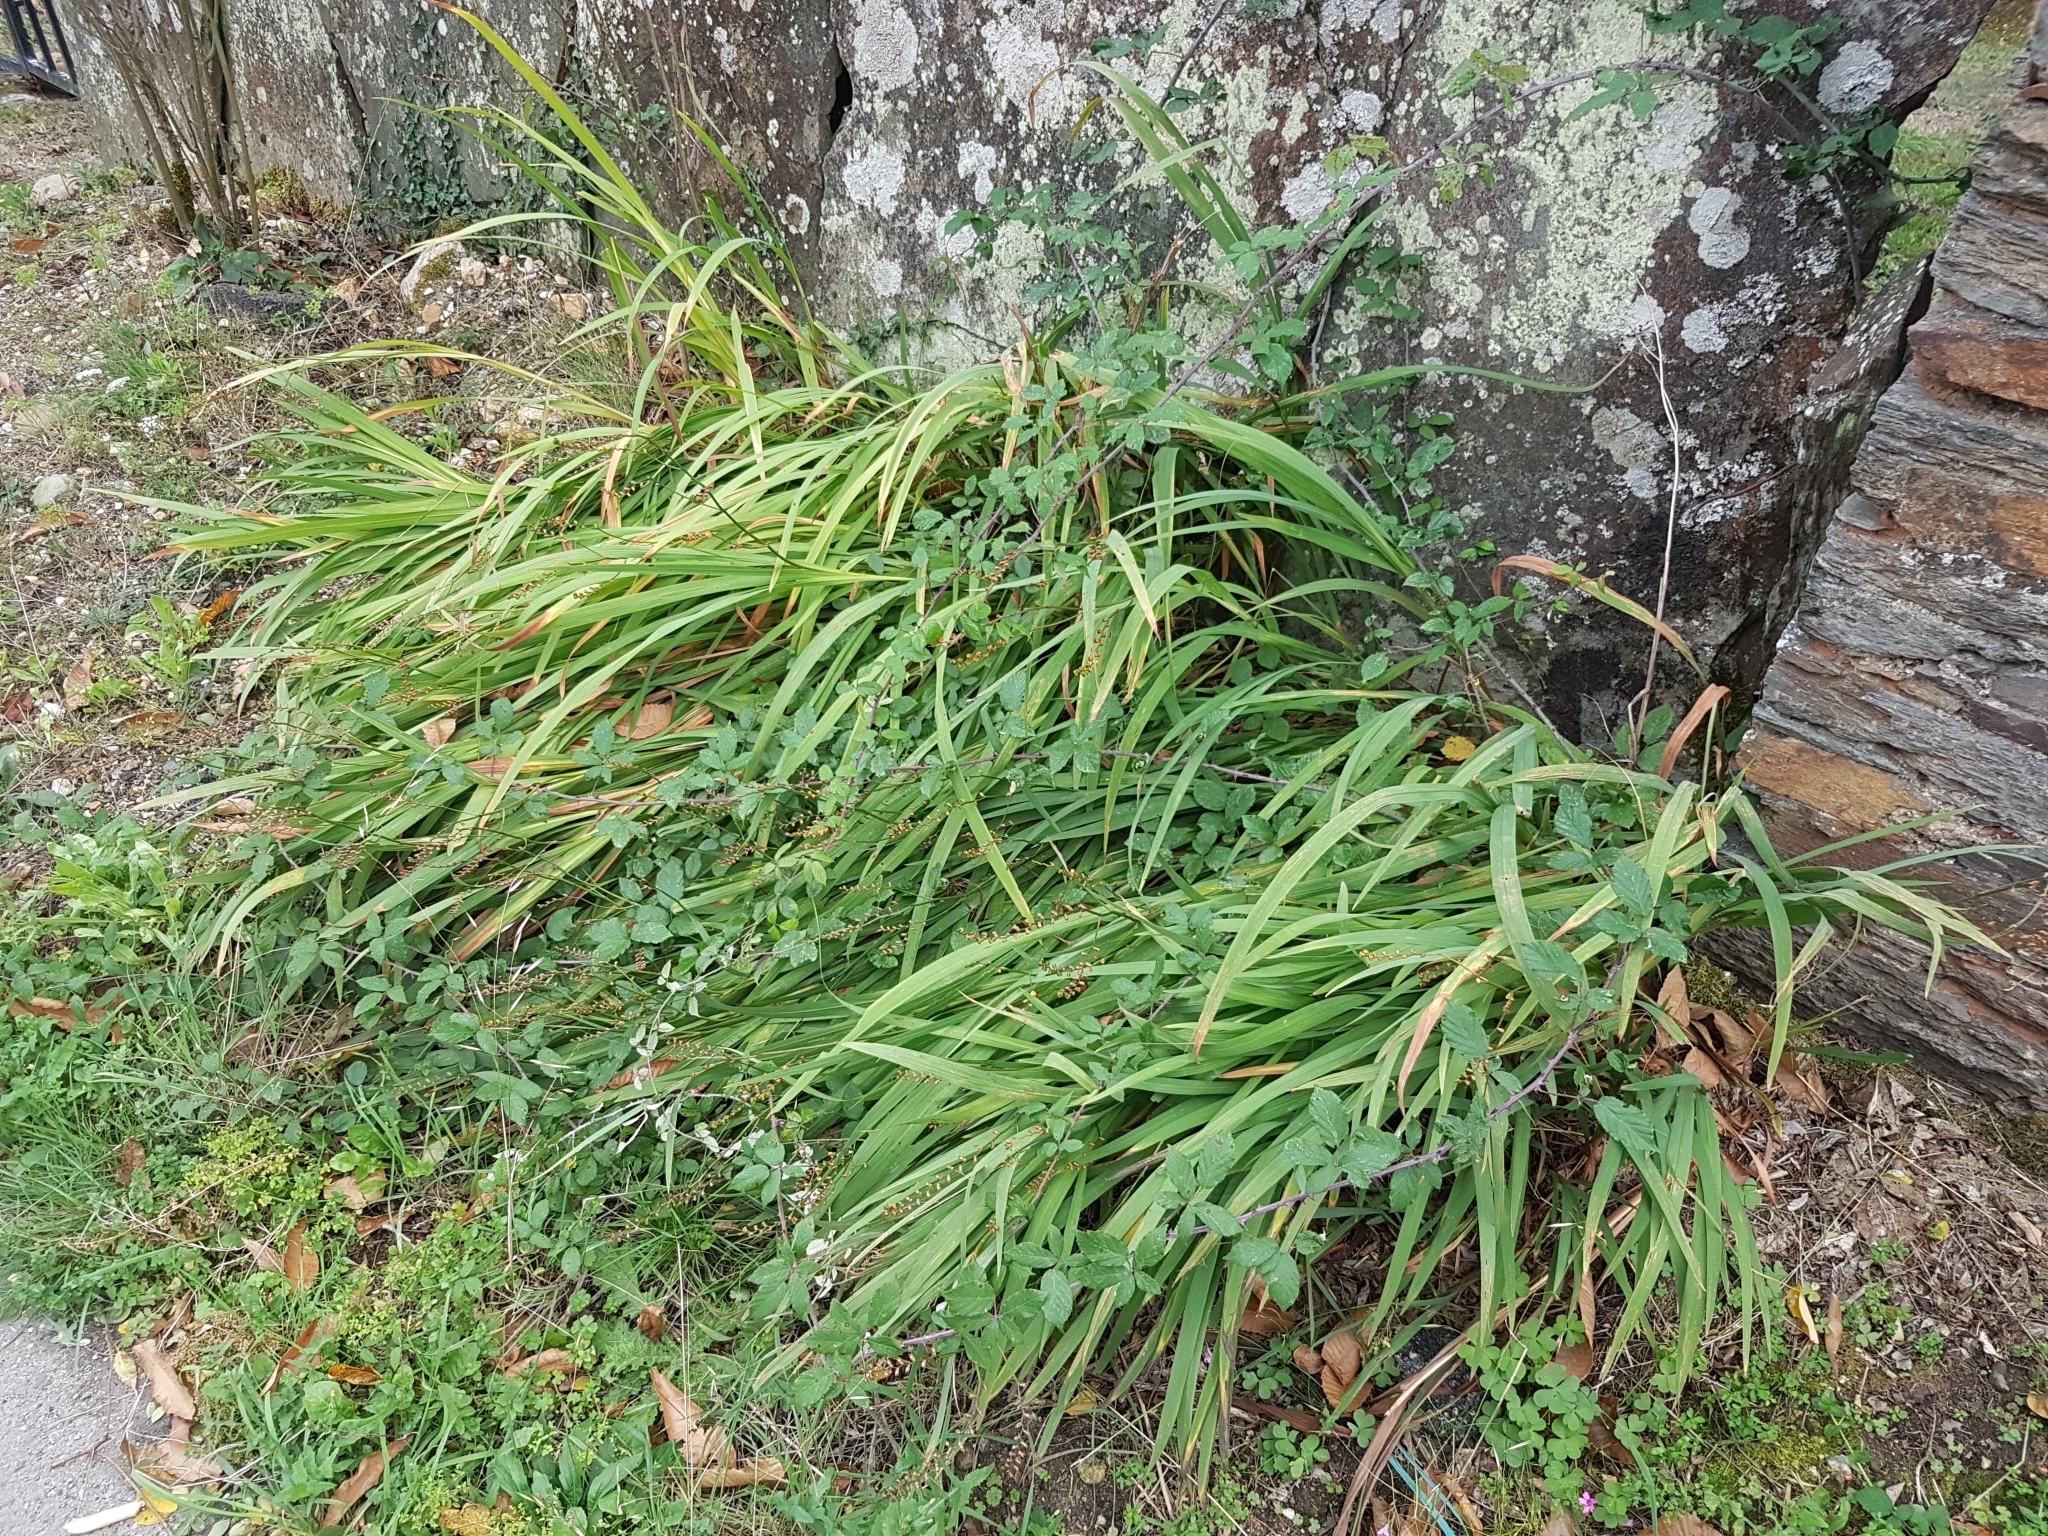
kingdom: Plantae
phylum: Tracheophyta
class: Liliopsida
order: Asparagales
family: Iridaceae
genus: Crocosmia
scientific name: Crocosmia crocosmiiflora
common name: Montbretia
